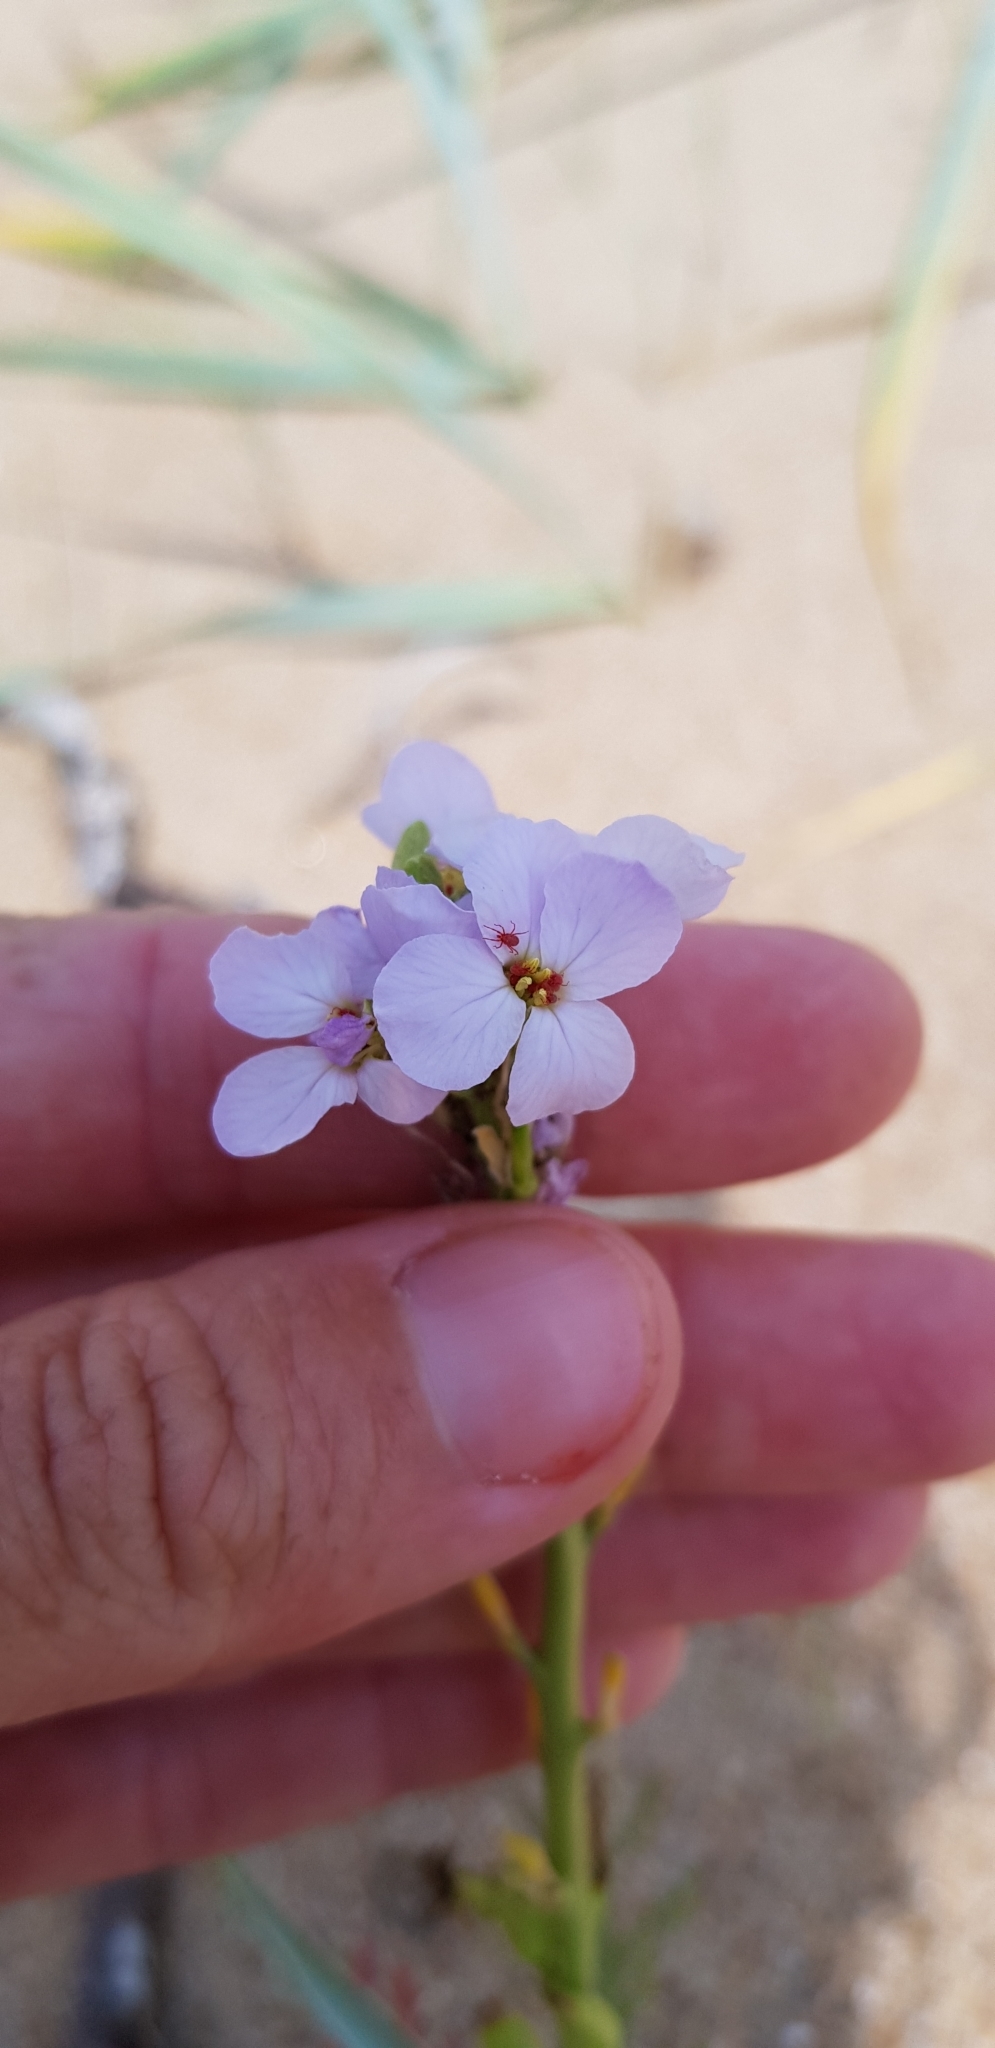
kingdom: Plantae
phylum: Tracheophyta
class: Magnoliopsida
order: Brassicales
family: Brassicaceae
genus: Cakile
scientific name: Cakile maritima
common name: Sea rocket
